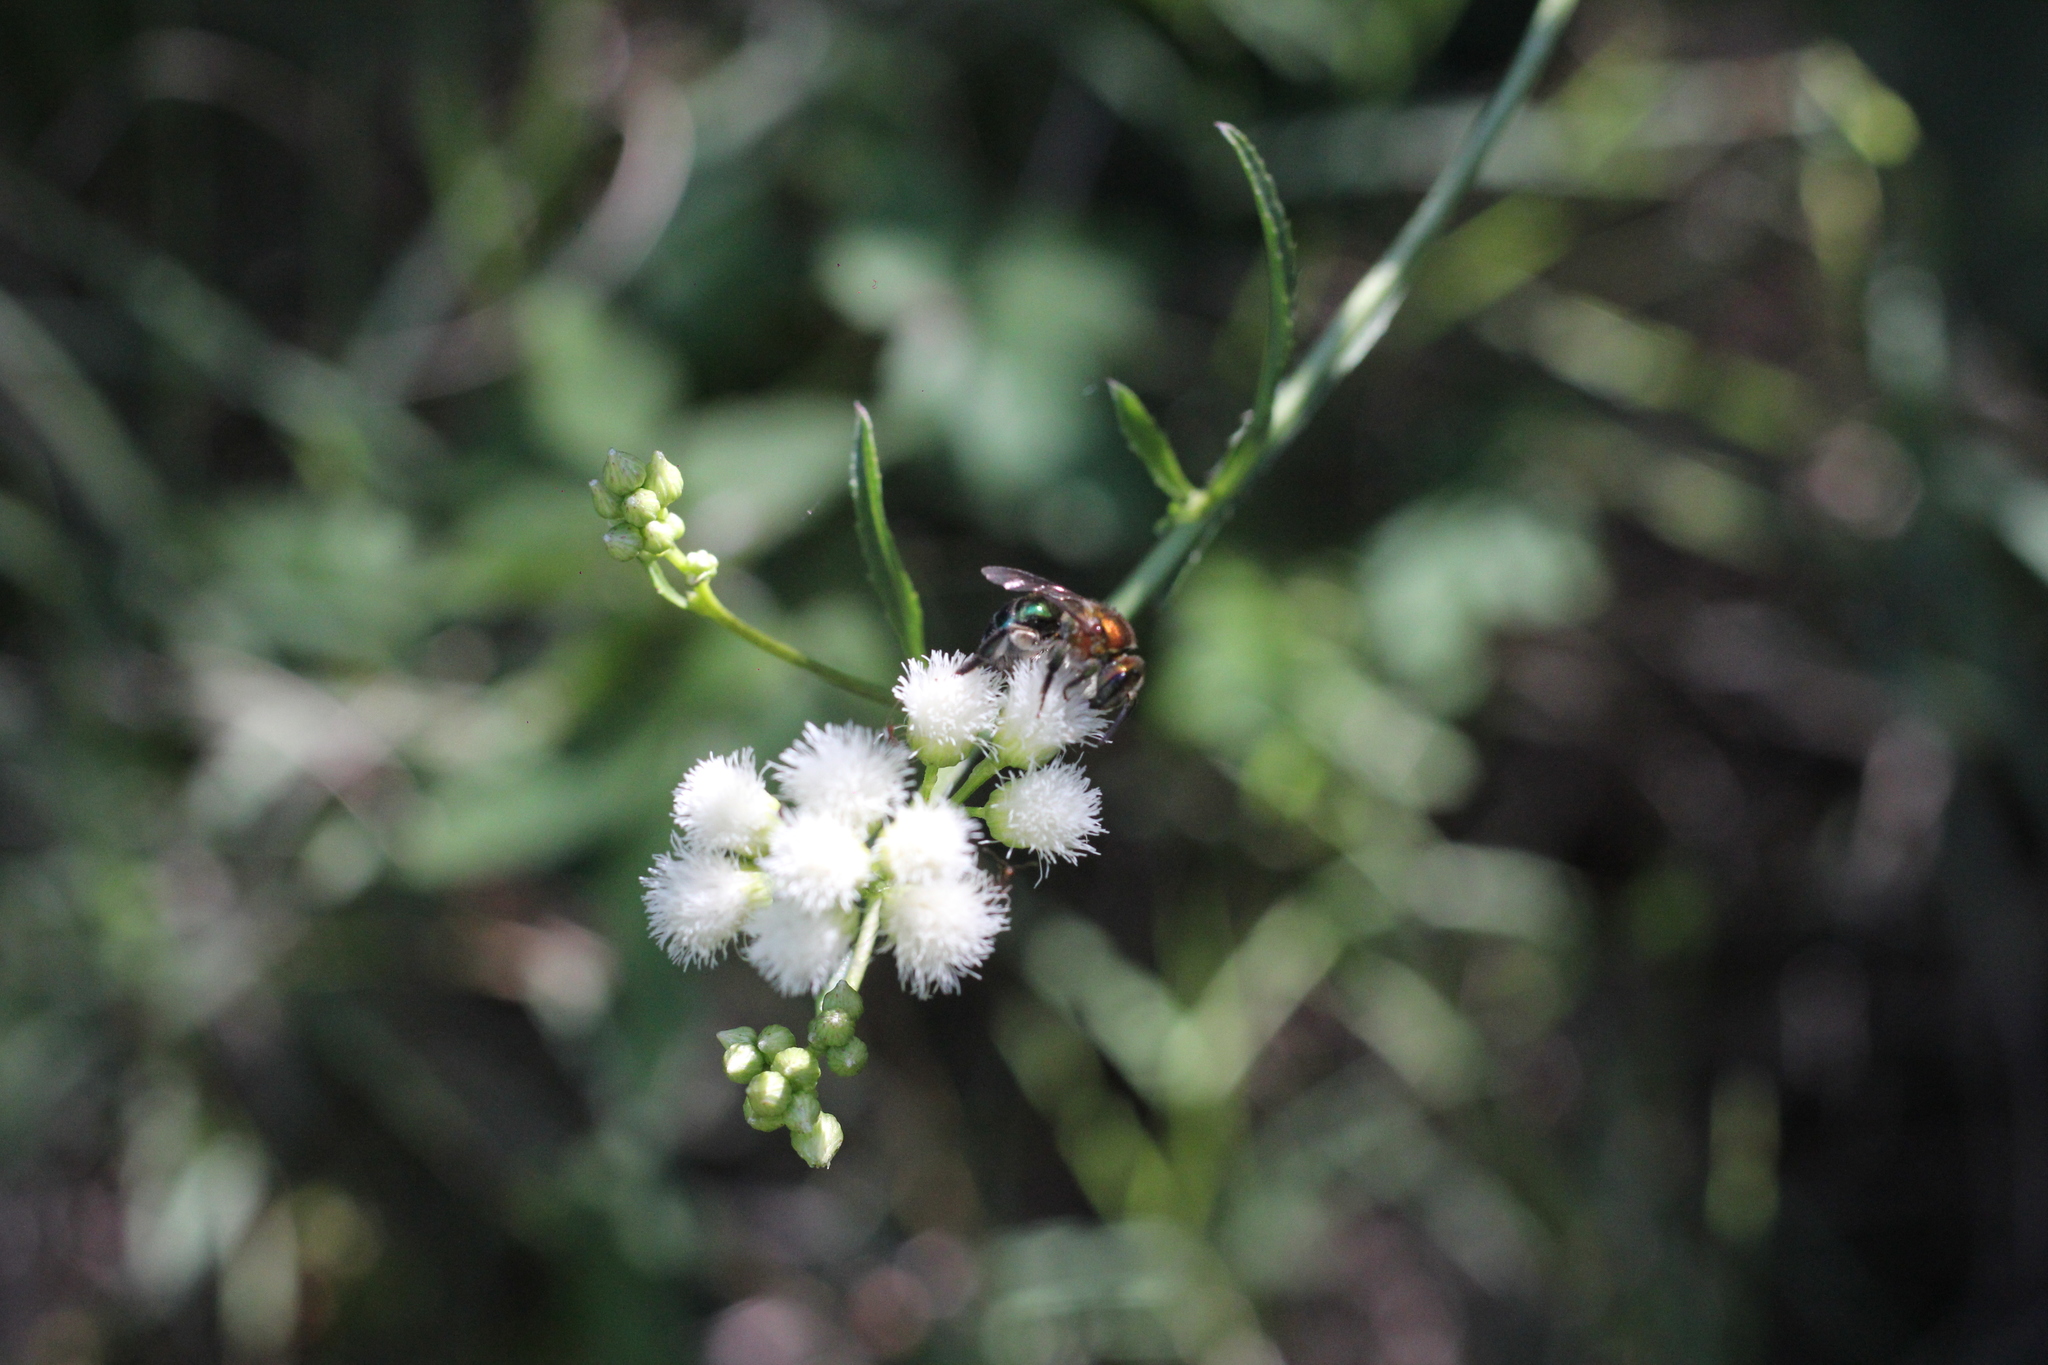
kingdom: Animalia
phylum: Arthropoda
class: Insecta
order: Hymenoptera
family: Halictidae
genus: Augochloropsis
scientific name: Augochloropsis tupacamaru
